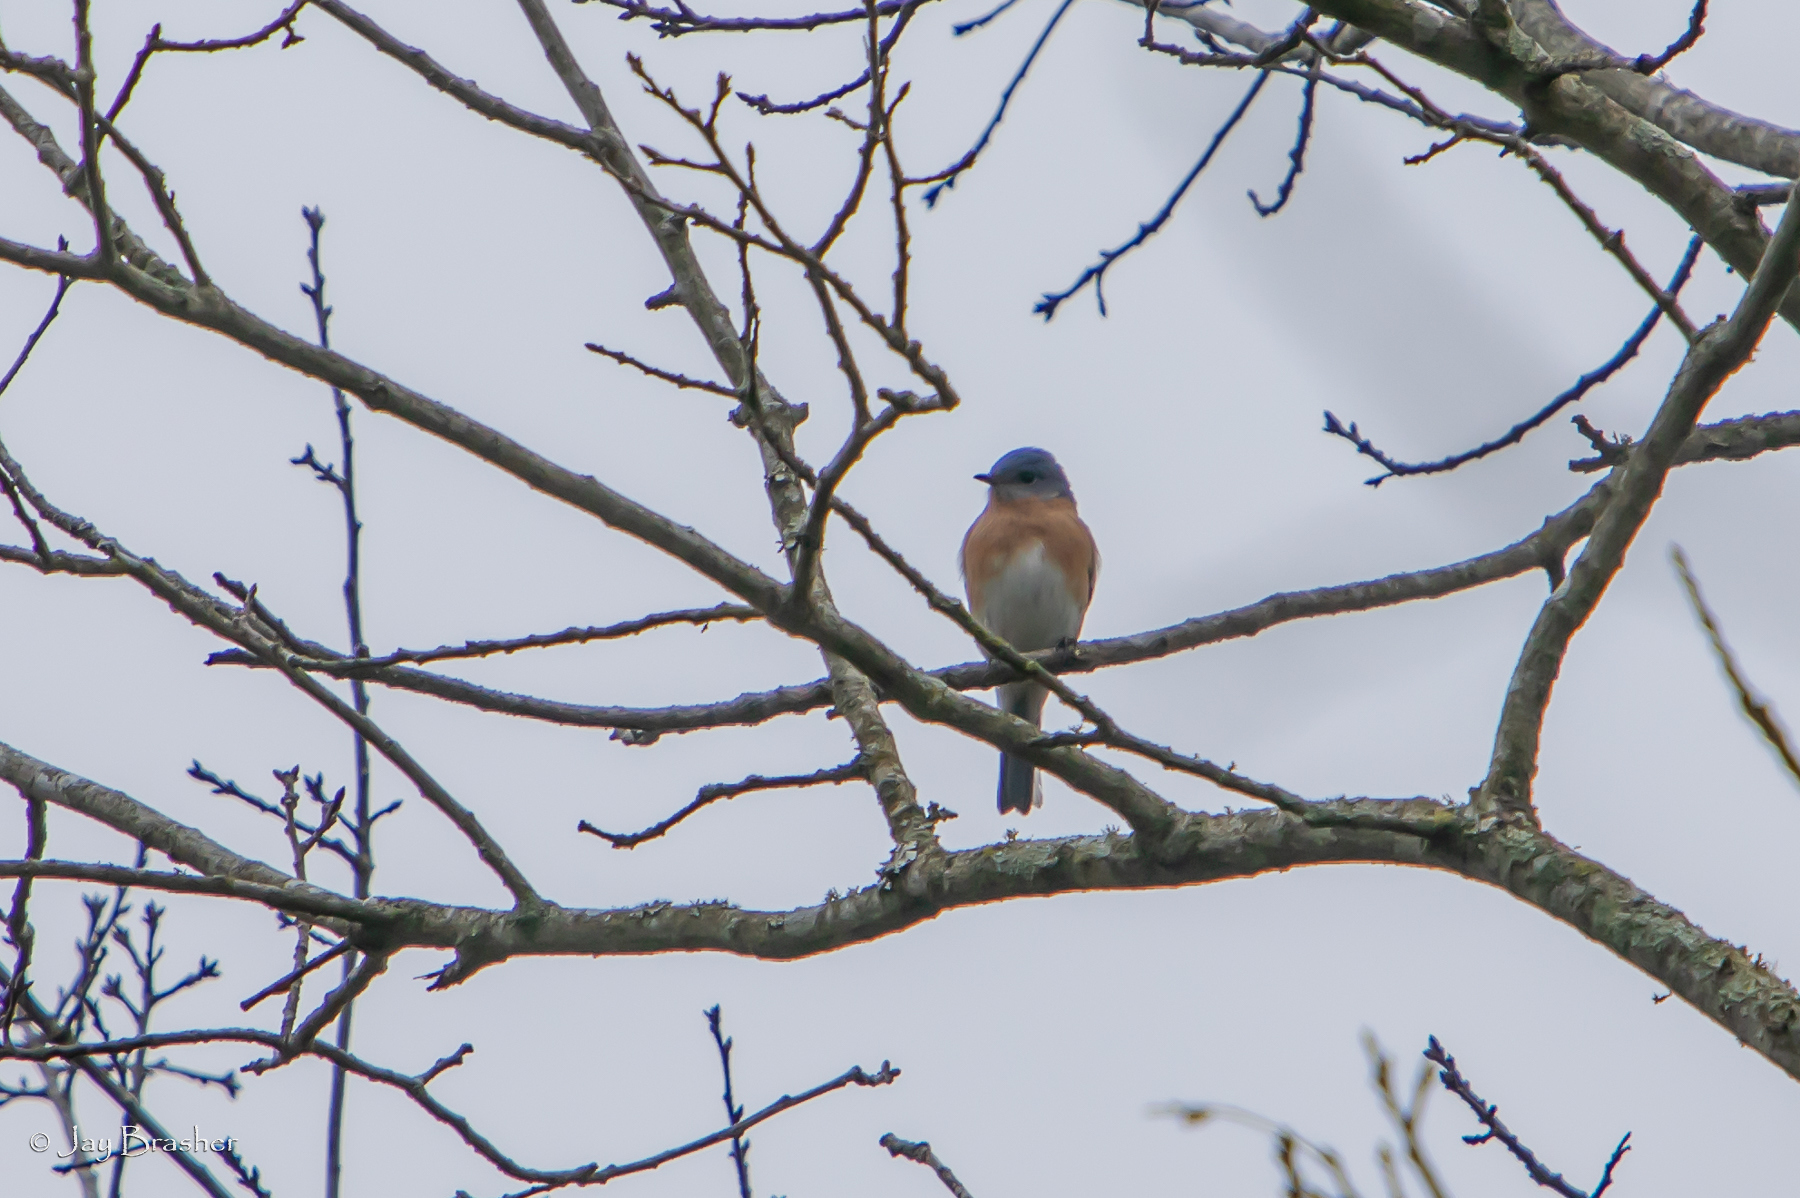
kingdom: Animalia
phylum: Chordata
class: Aves
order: Passeriformes
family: Turdidae
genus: Sialia
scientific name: Sialia sialis
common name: Eastern bluebird
